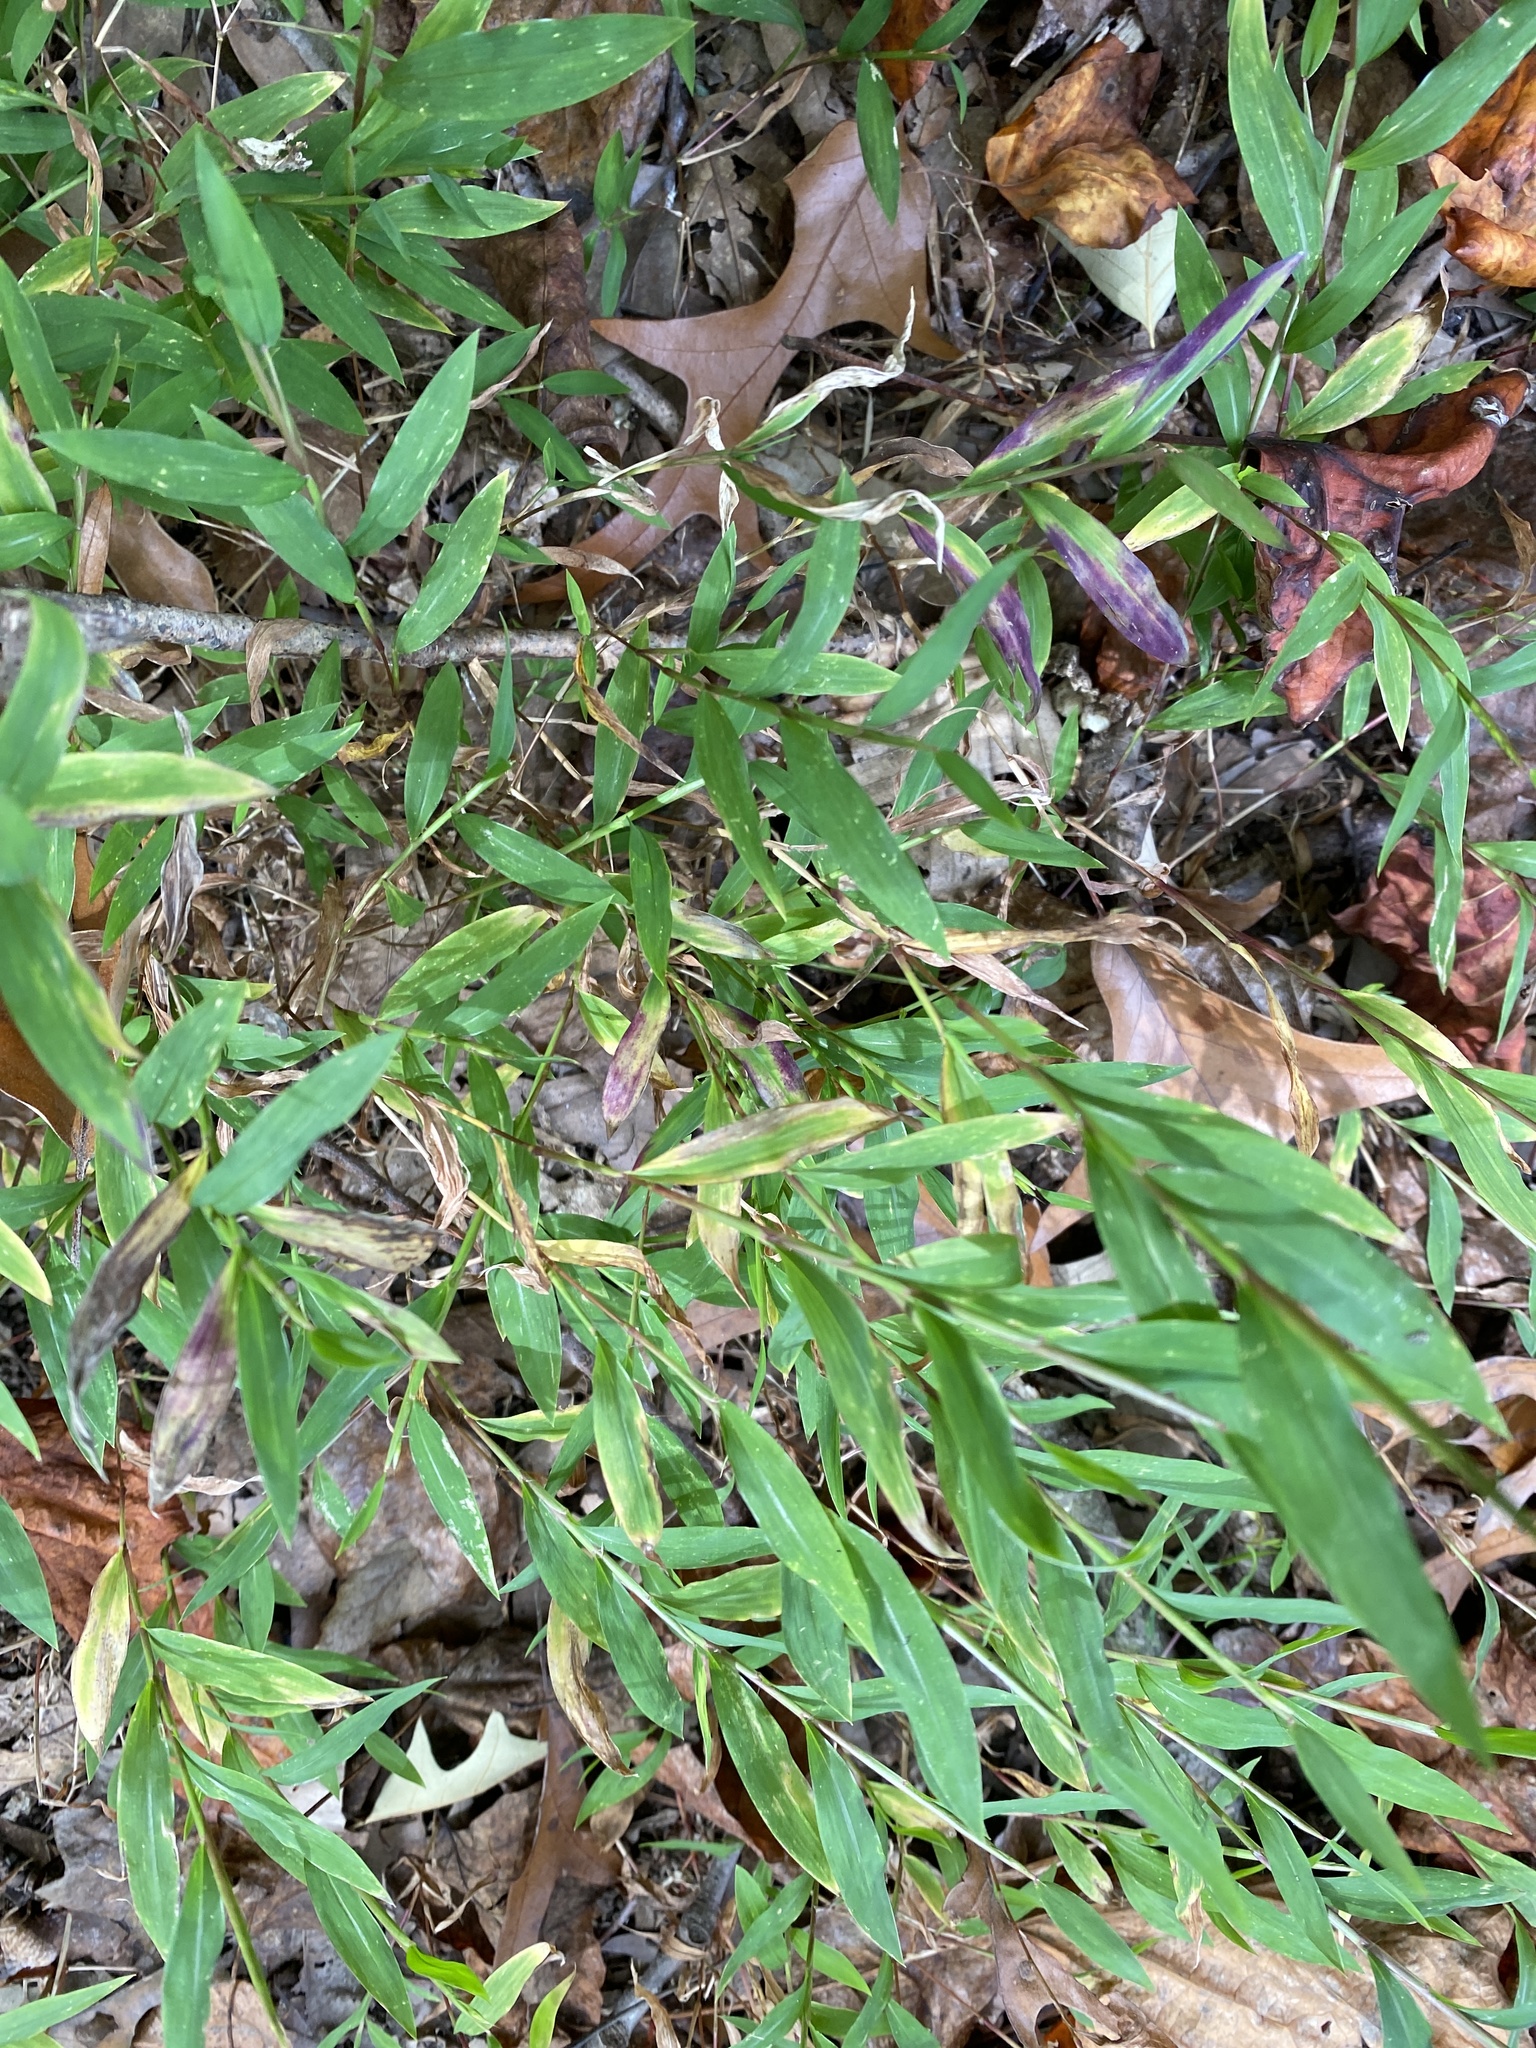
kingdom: Plantae
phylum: Tracheophyta
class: Liliopsida
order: Poales
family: Poaceae
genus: Microstegium
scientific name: Microstegium vimineum
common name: Japanese stiltgrass
